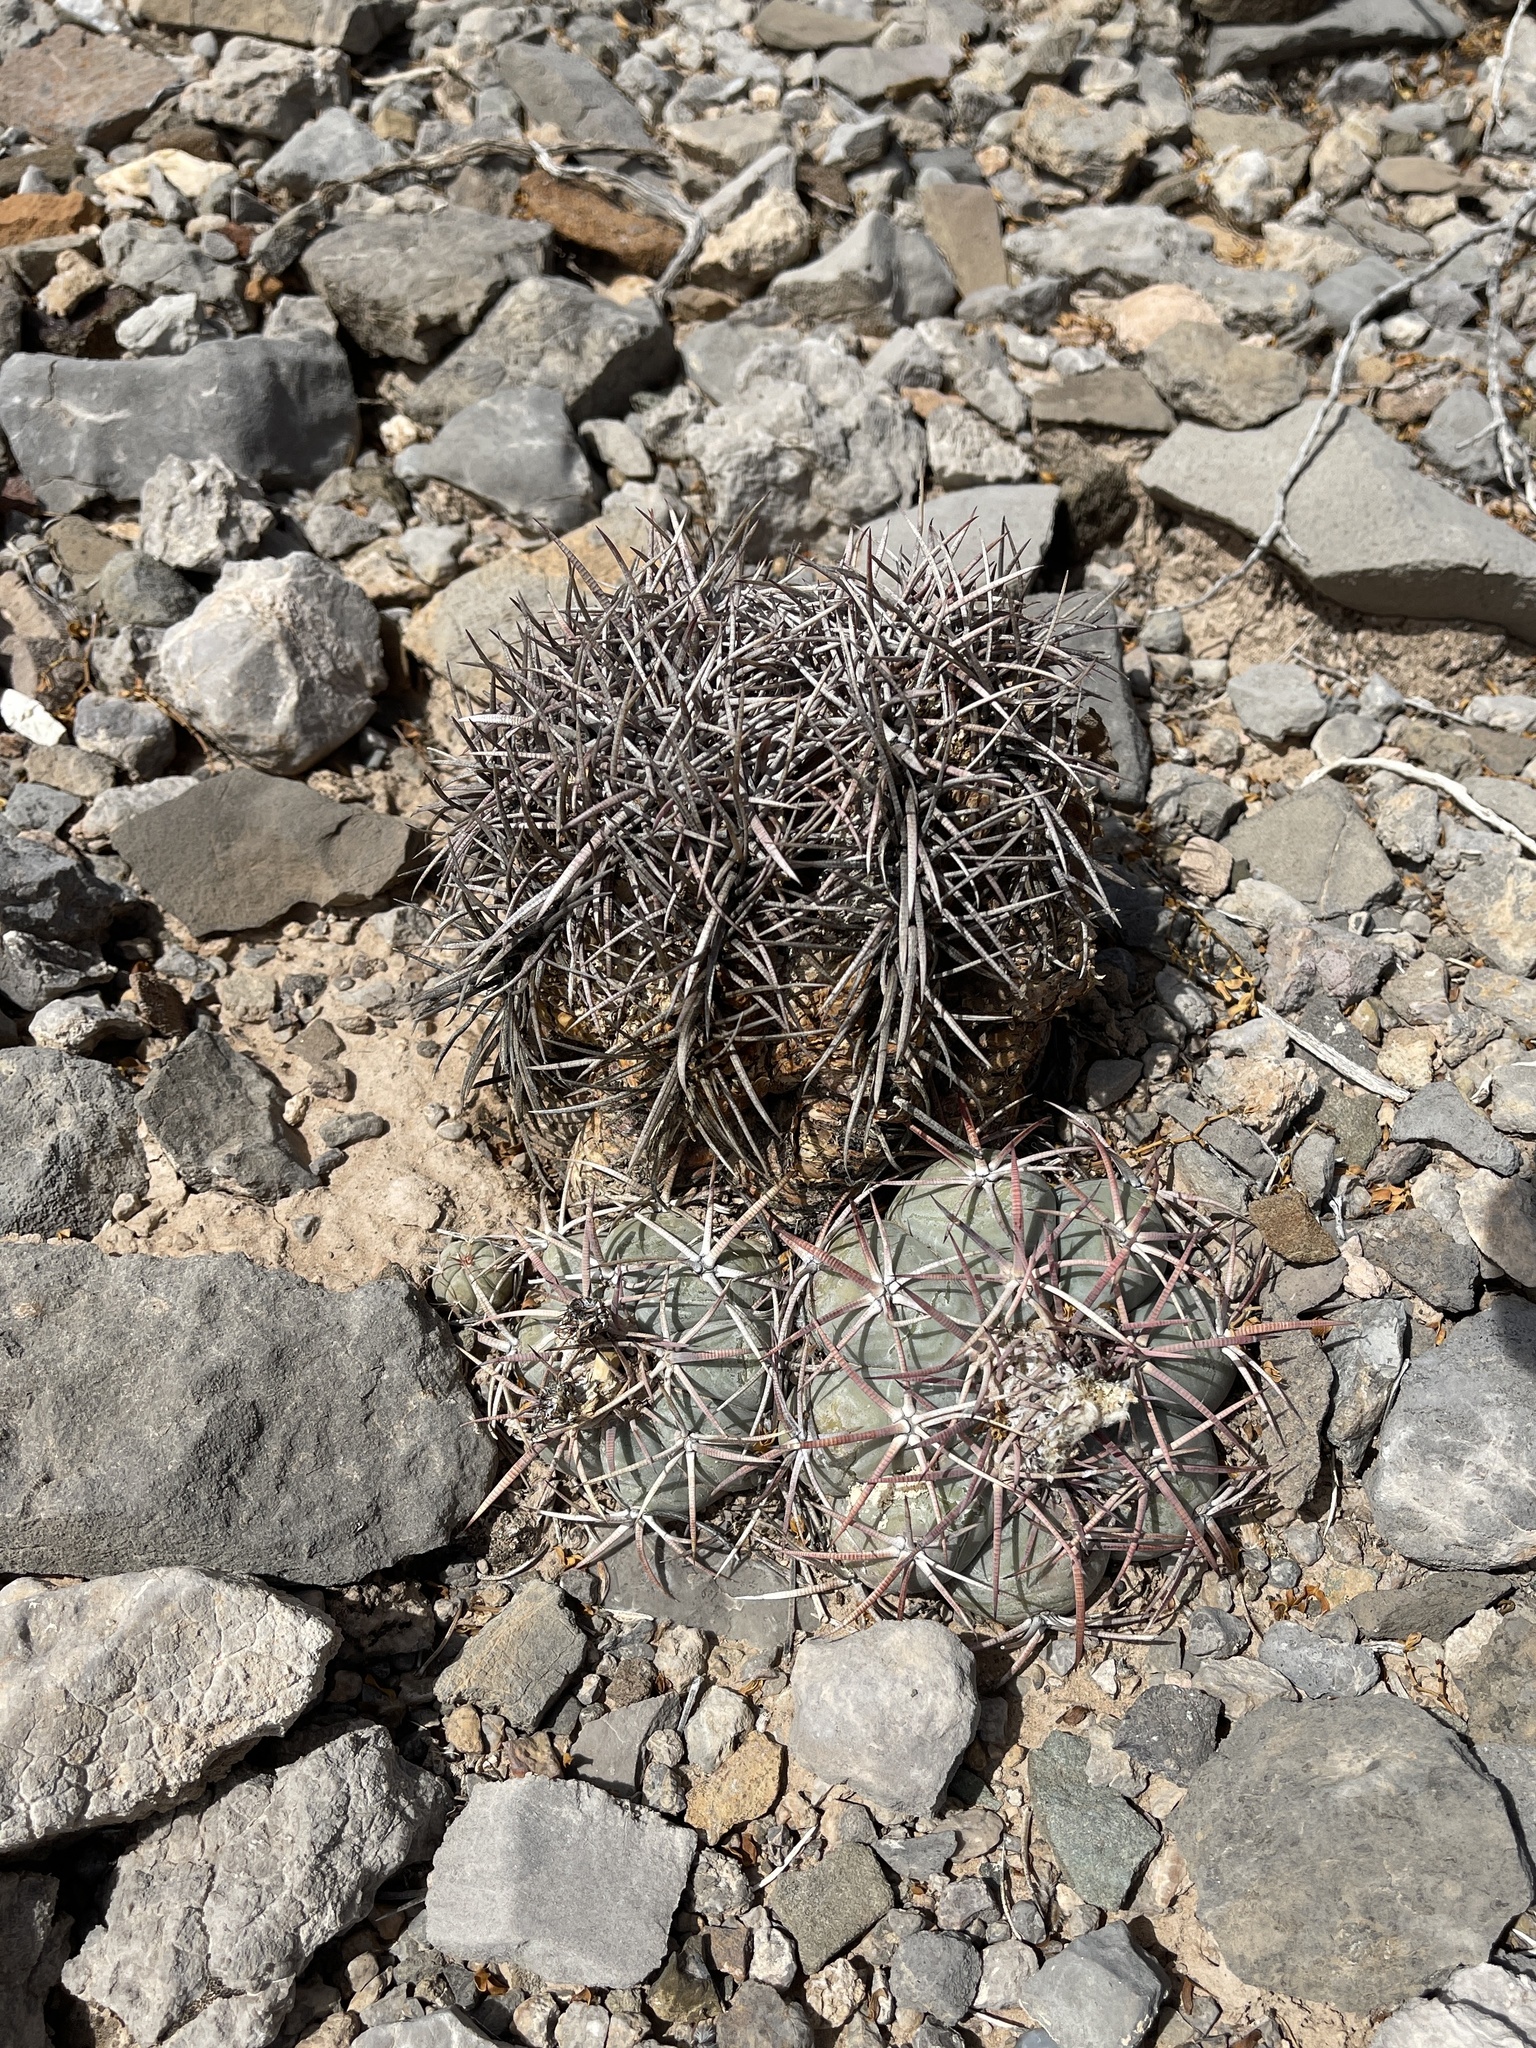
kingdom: Plantae
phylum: Tracheophyta
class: Magnoliopsida
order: Caryophyllales
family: Cactaceae
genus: Echinocactus
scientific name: Echinocactus horizonthalonius
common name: Devilshead
